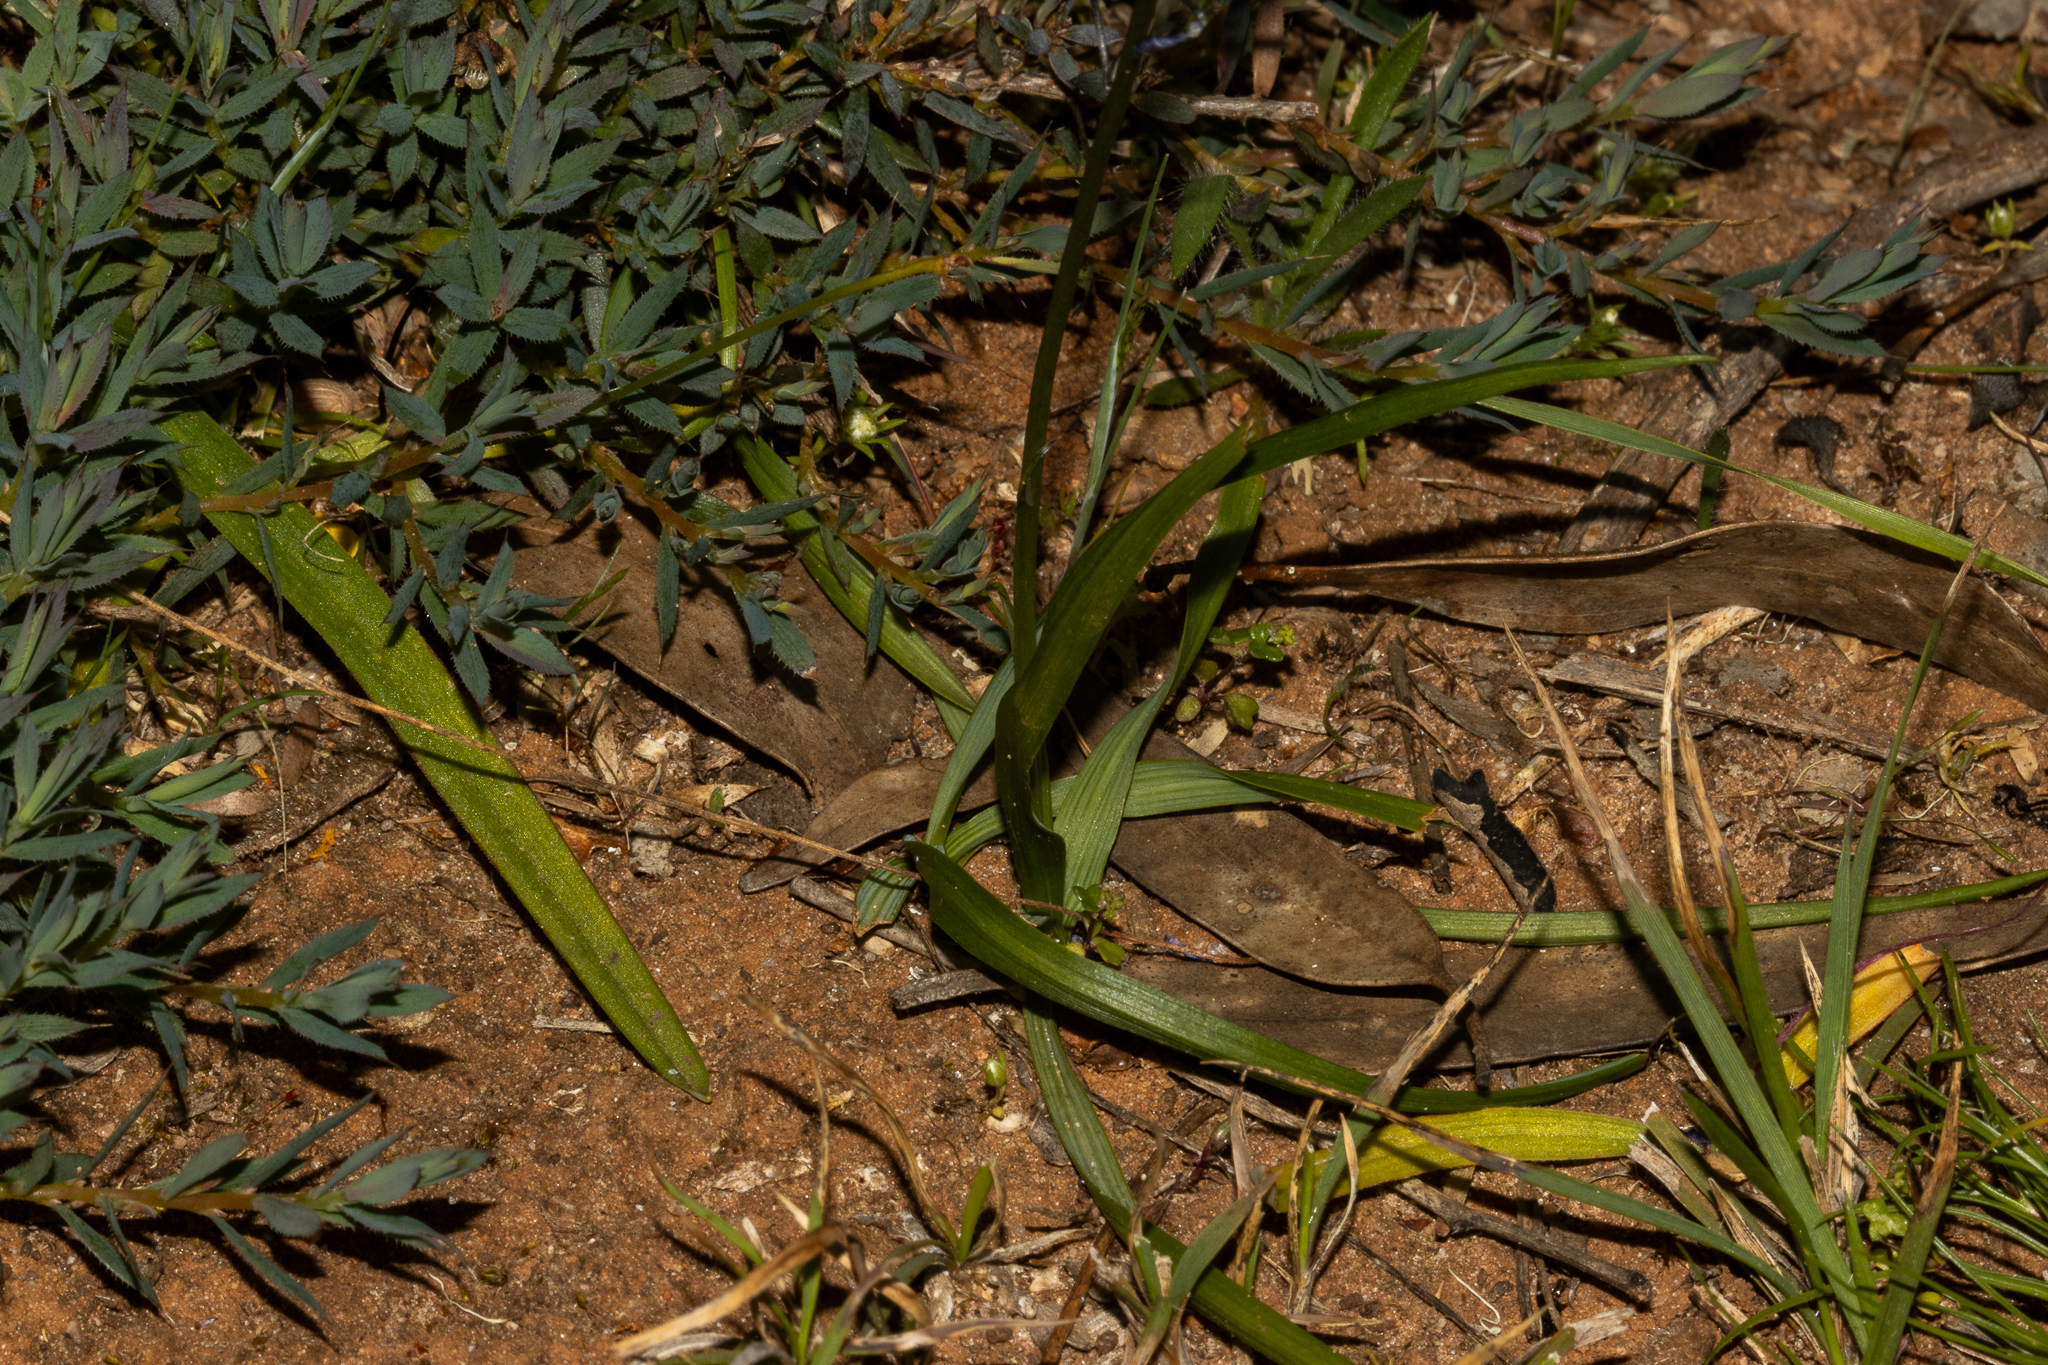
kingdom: Plantae
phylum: Tracheophyta
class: Liliopsida
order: Asparagales
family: Asphodelaceae
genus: Caesia
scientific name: Caesia calliantha
